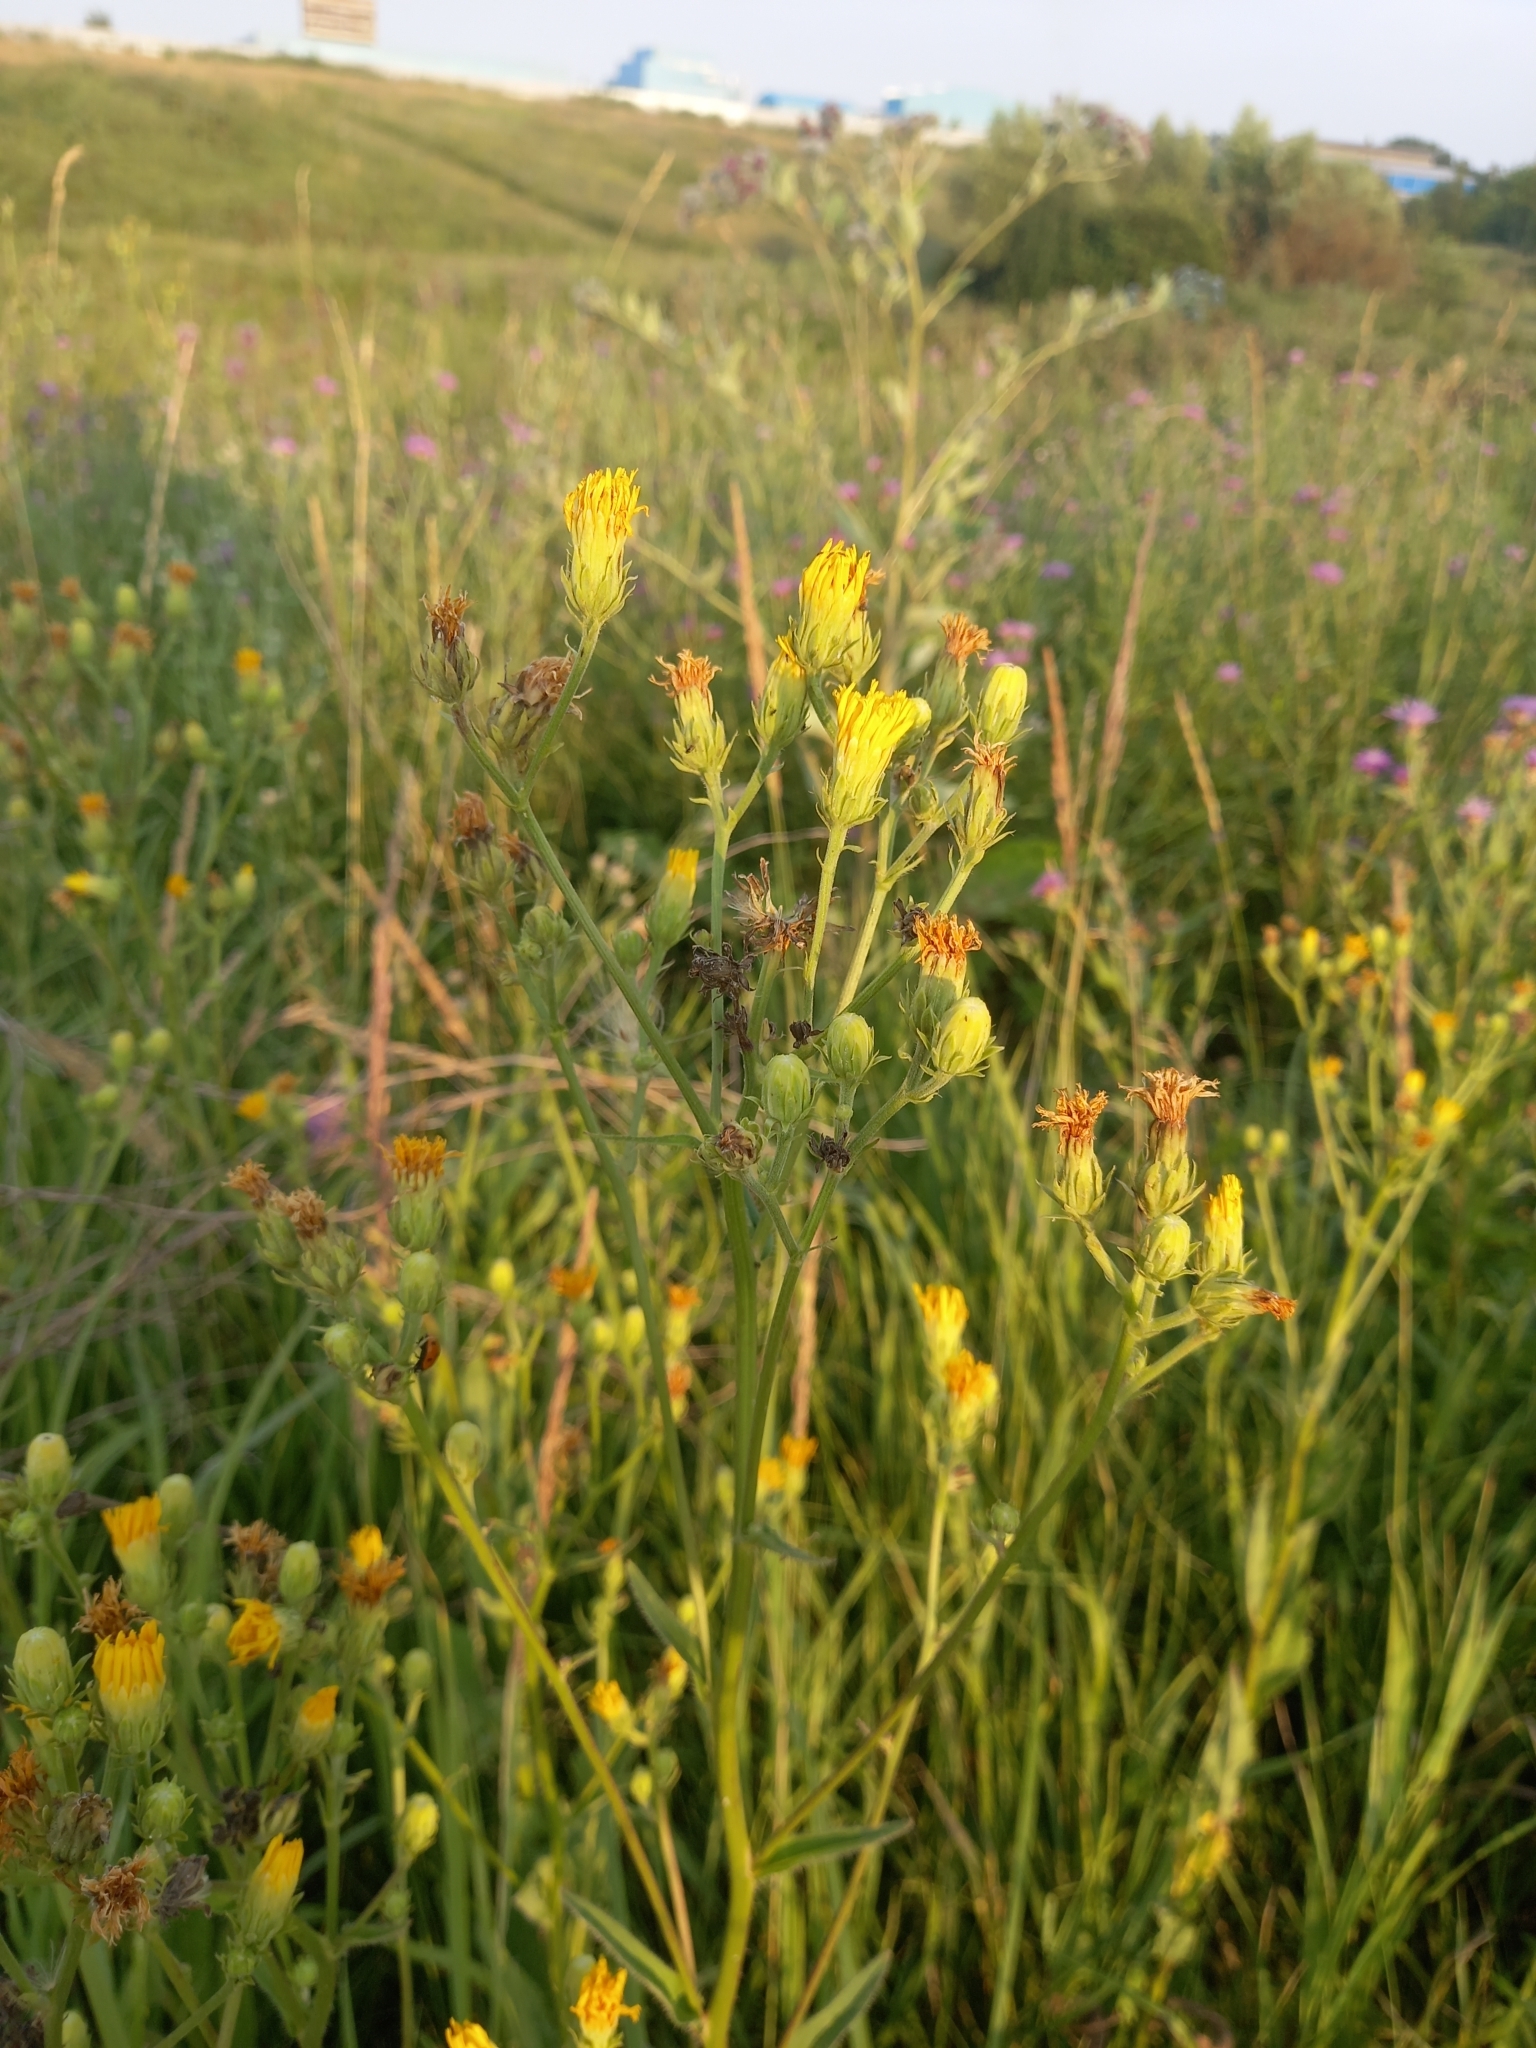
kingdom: Plantae
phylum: Tracheophyta
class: Magnoliopsida
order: Asterales
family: Asteraceae
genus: Picris
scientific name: Picris hieracioides
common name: Hawkweed oxtongue
